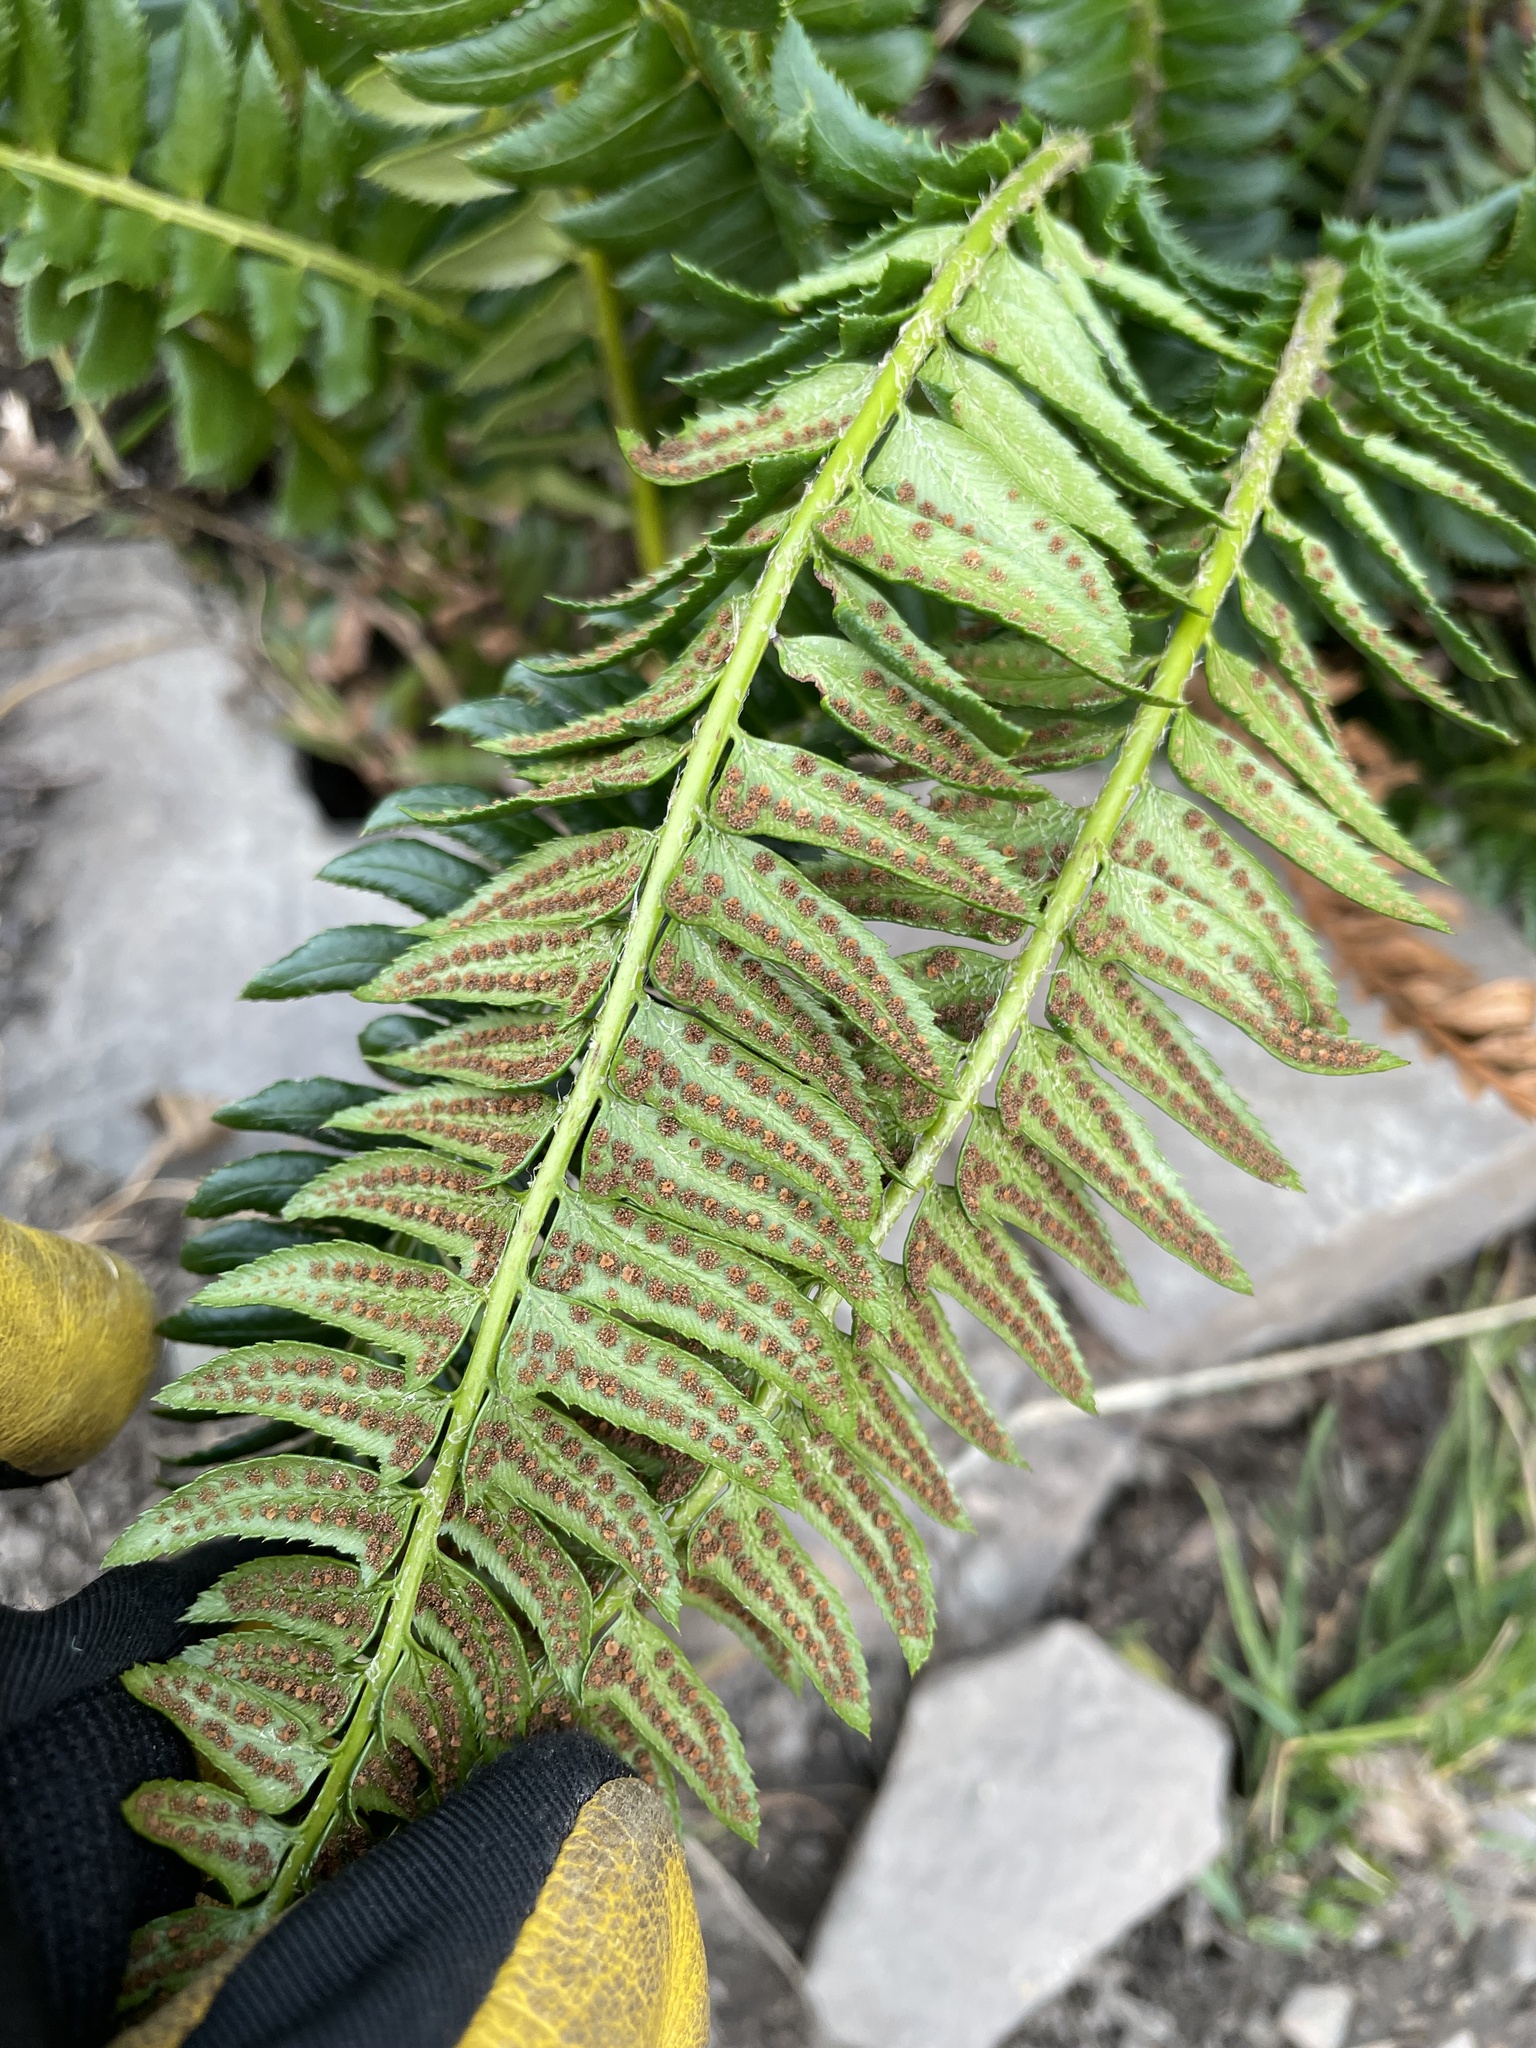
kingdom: Plantae
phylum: Tracheophyta
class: Polypodiopsida
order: Polypodiales
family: Dryopteridaceae
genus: Polystichum
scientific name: Polystichum lonchitis
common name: Holly fern
